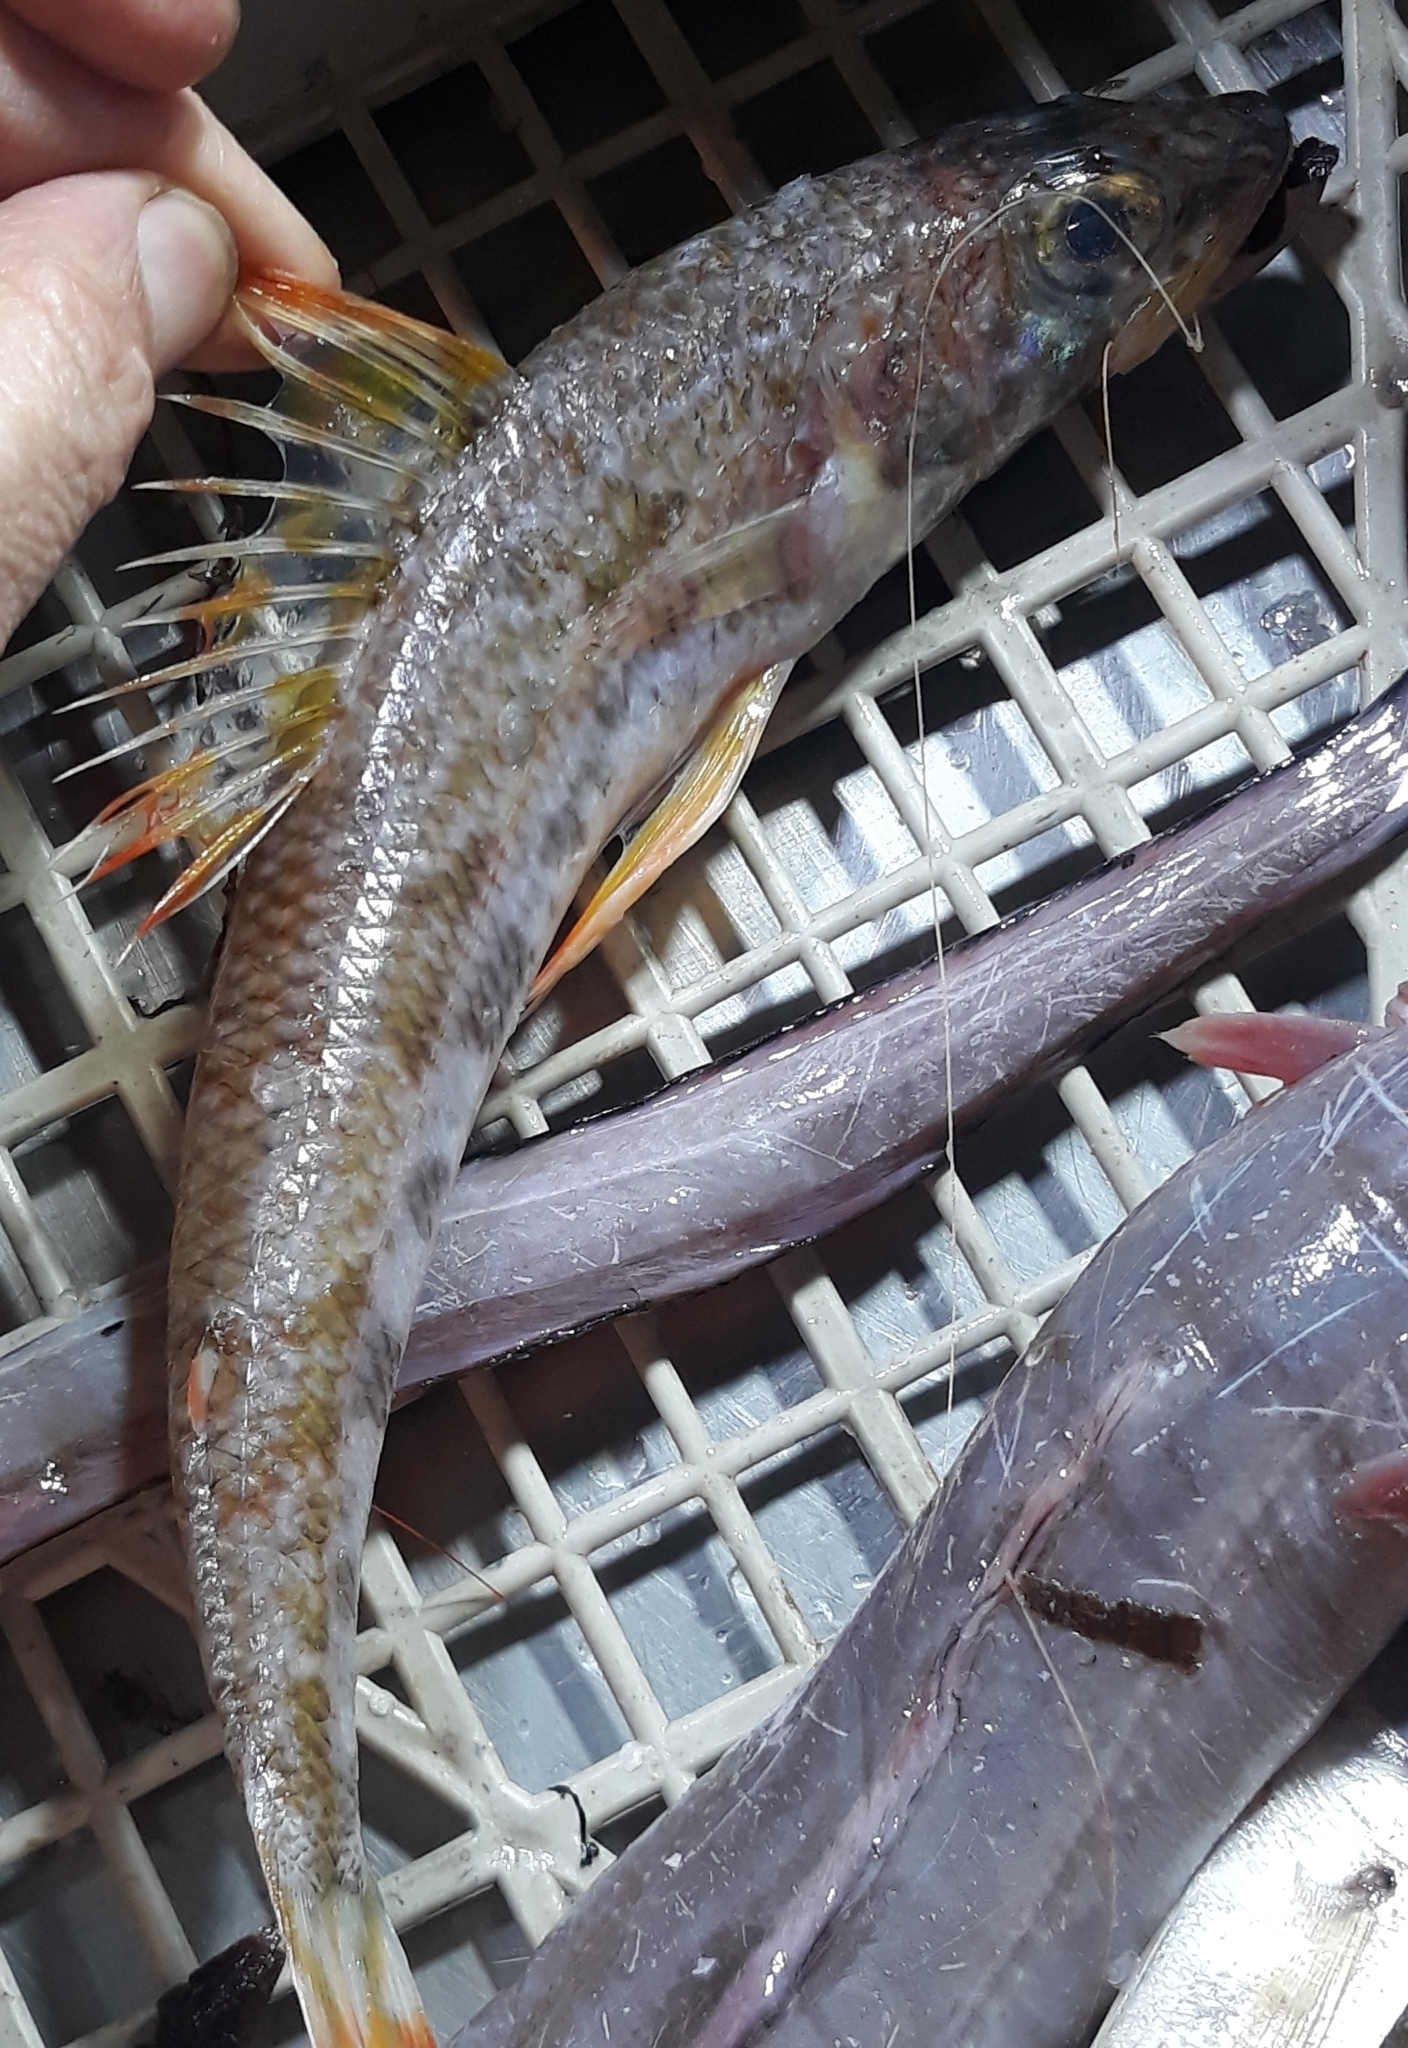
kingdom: Animalia
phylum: Chordata
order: Aulopiformes
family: Aulopidae
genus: Aulopus
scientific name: Aulopus filamentosus
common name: Royal flagfin
